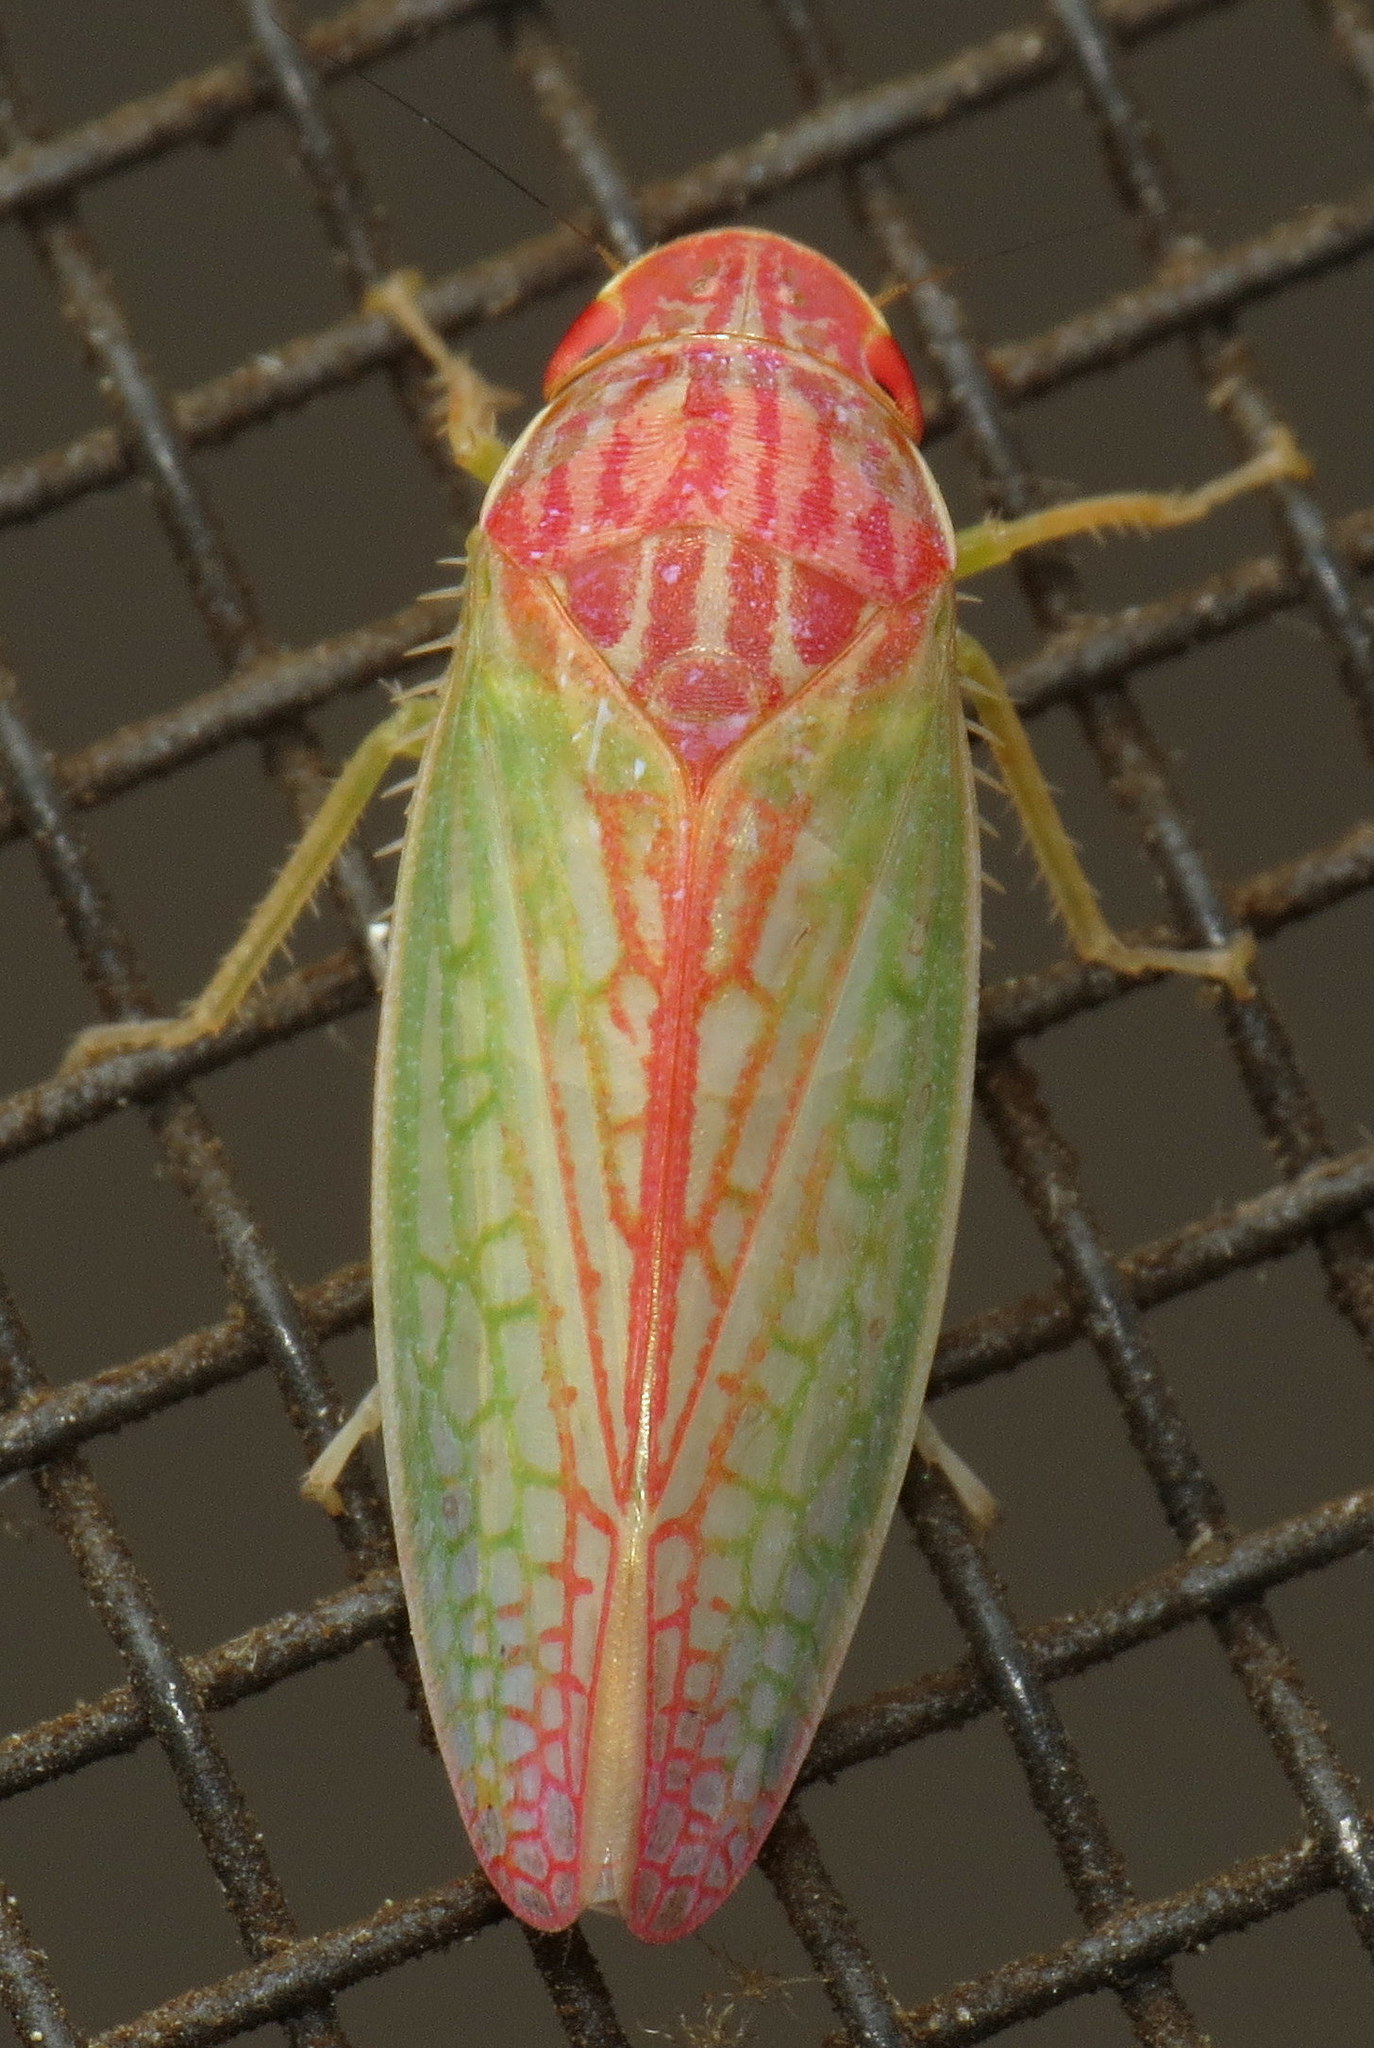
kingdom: Animalia
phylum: Arthropoda
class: Insecta
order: Hemiptera
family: Cicadellidae
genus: Gyponana
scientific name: Gyponana octolineata
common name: Eight-lined leafhopper
